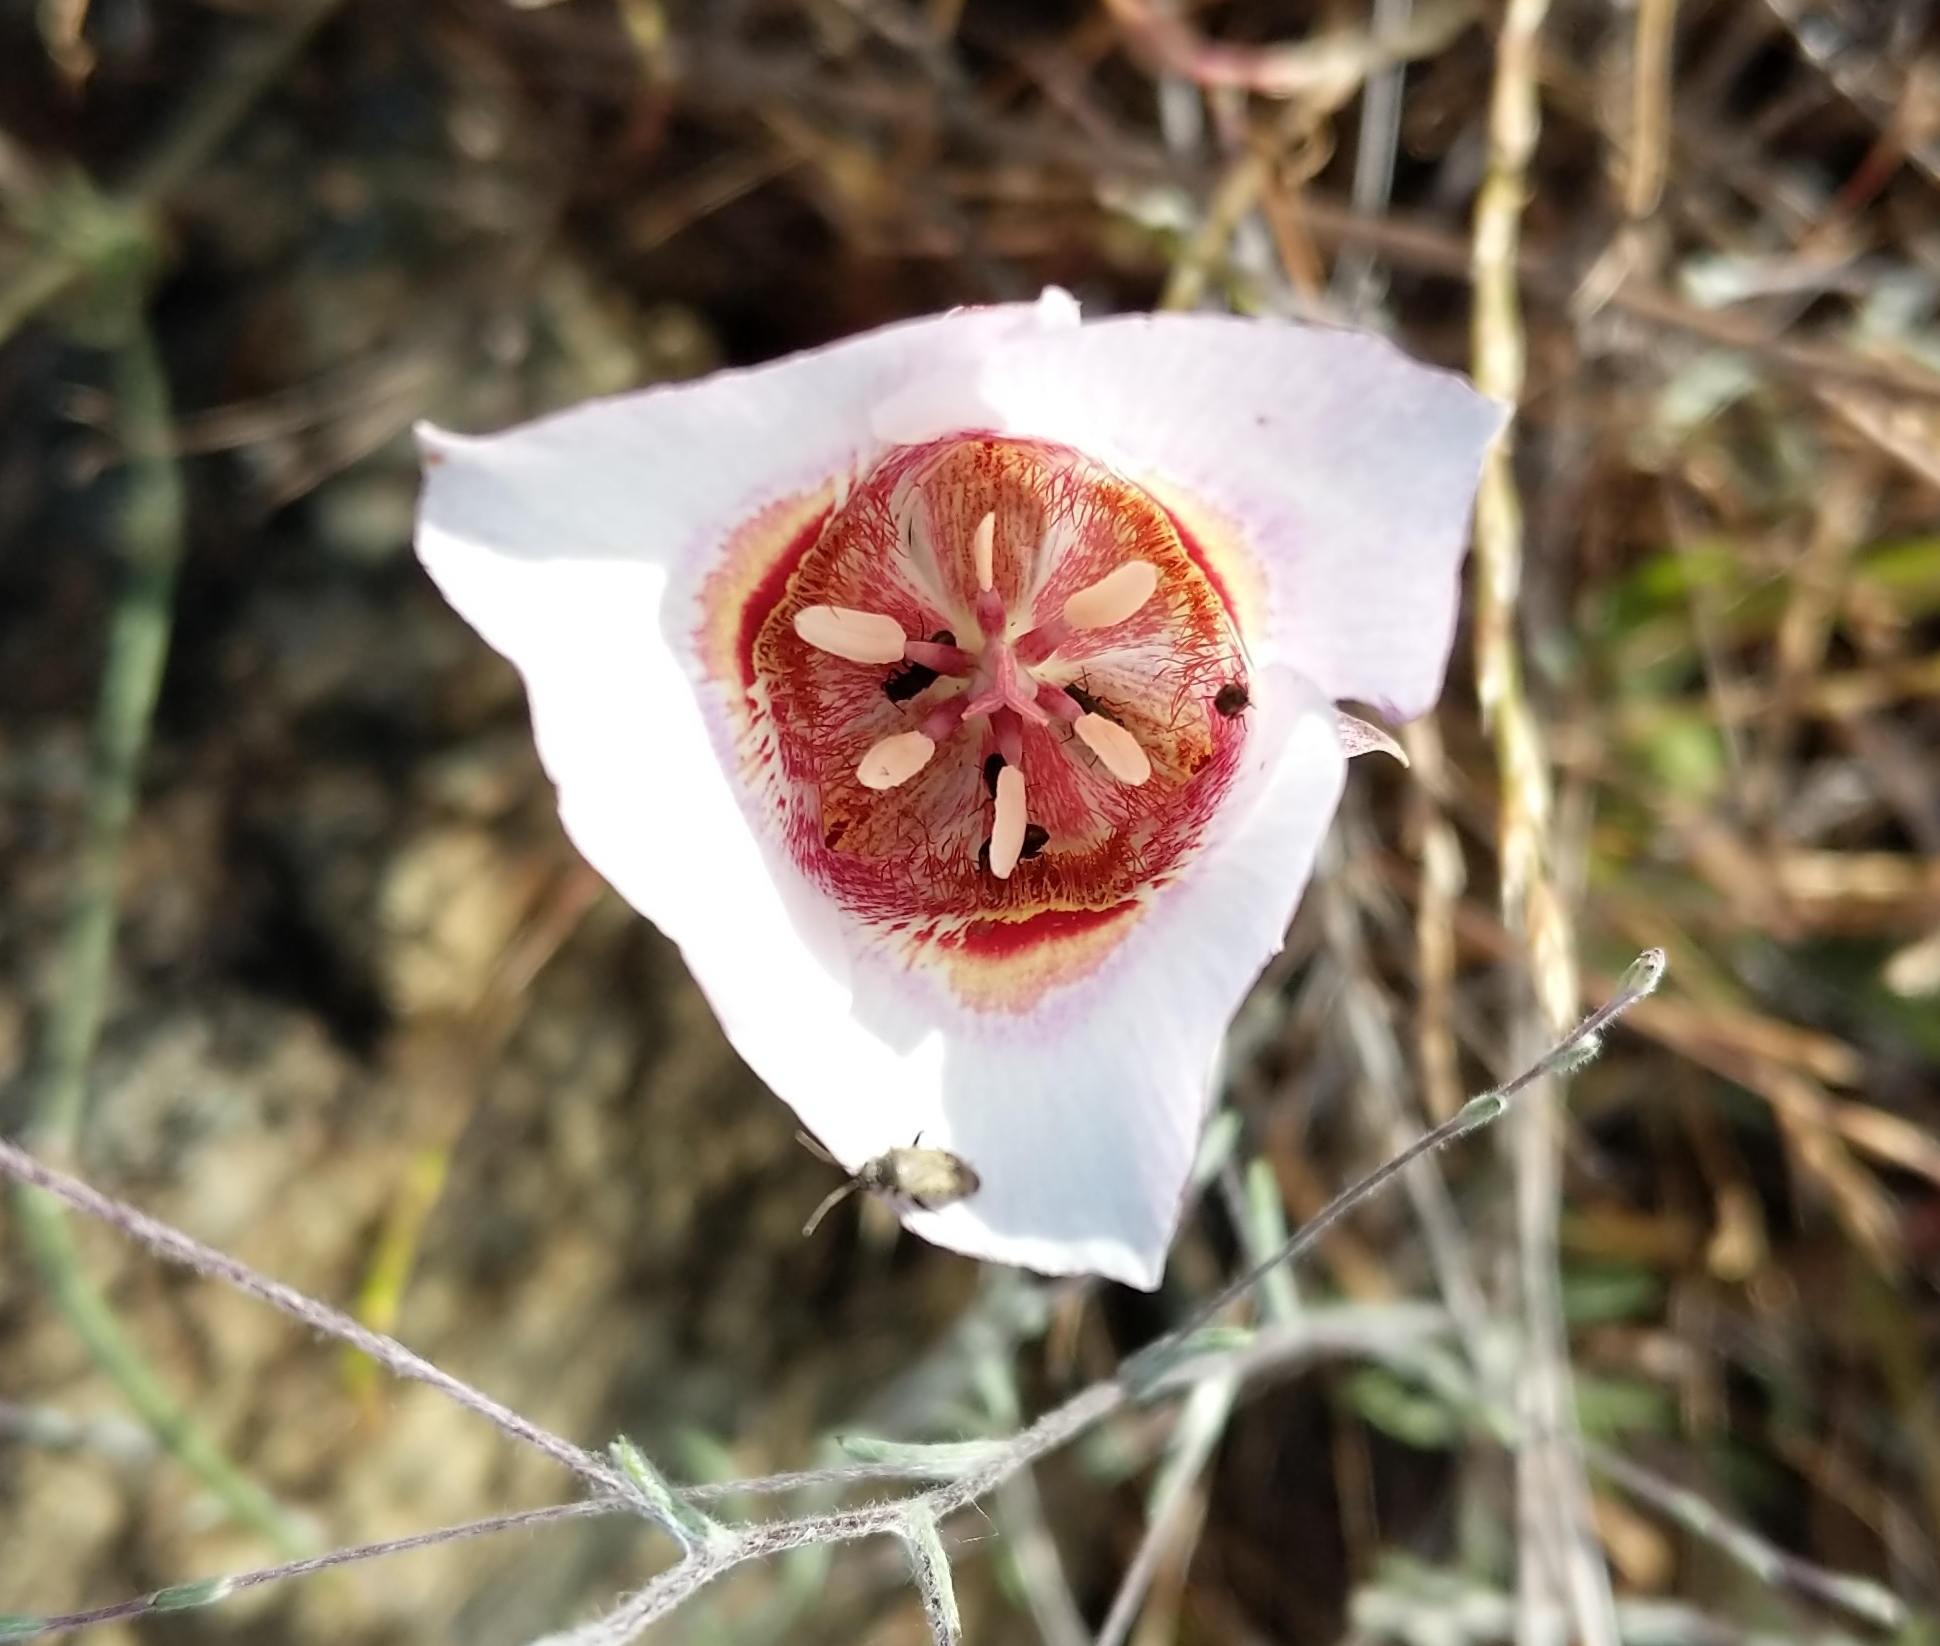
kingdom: Plantae
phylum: Tracheophyta
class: Liliopsida
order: Liliales
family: Liliaceae
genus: Calochortus
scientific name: Calochortus argillosus
